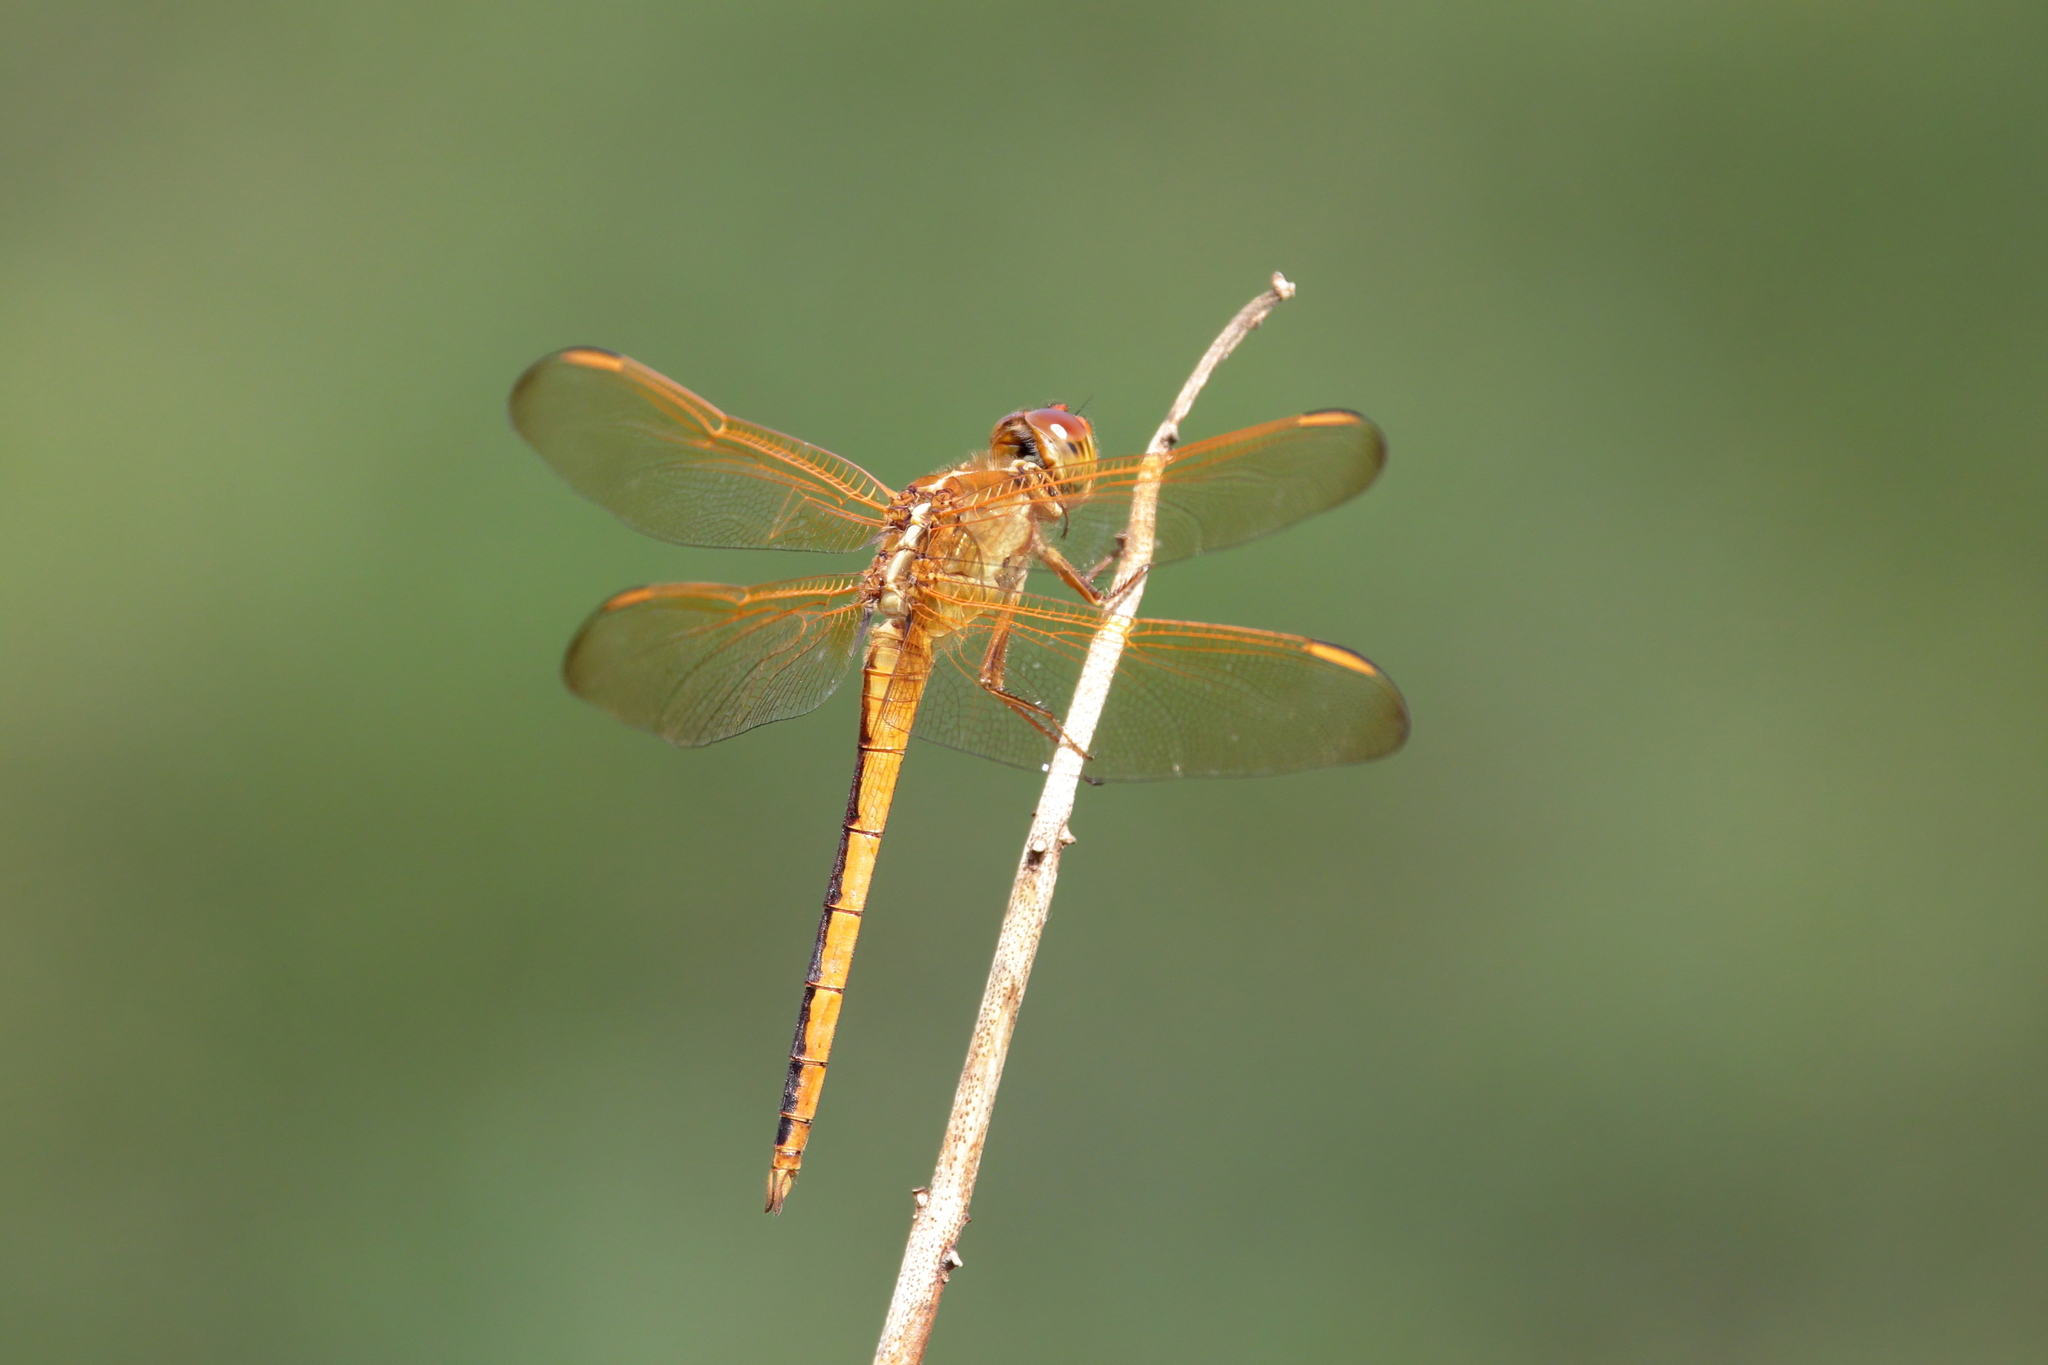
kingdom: Animalia
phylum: Arthropoda
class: Insecta
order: Odonata
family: Libellulidae
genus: Libellula
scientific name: Libellula needhami
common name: Needham's skimmer
